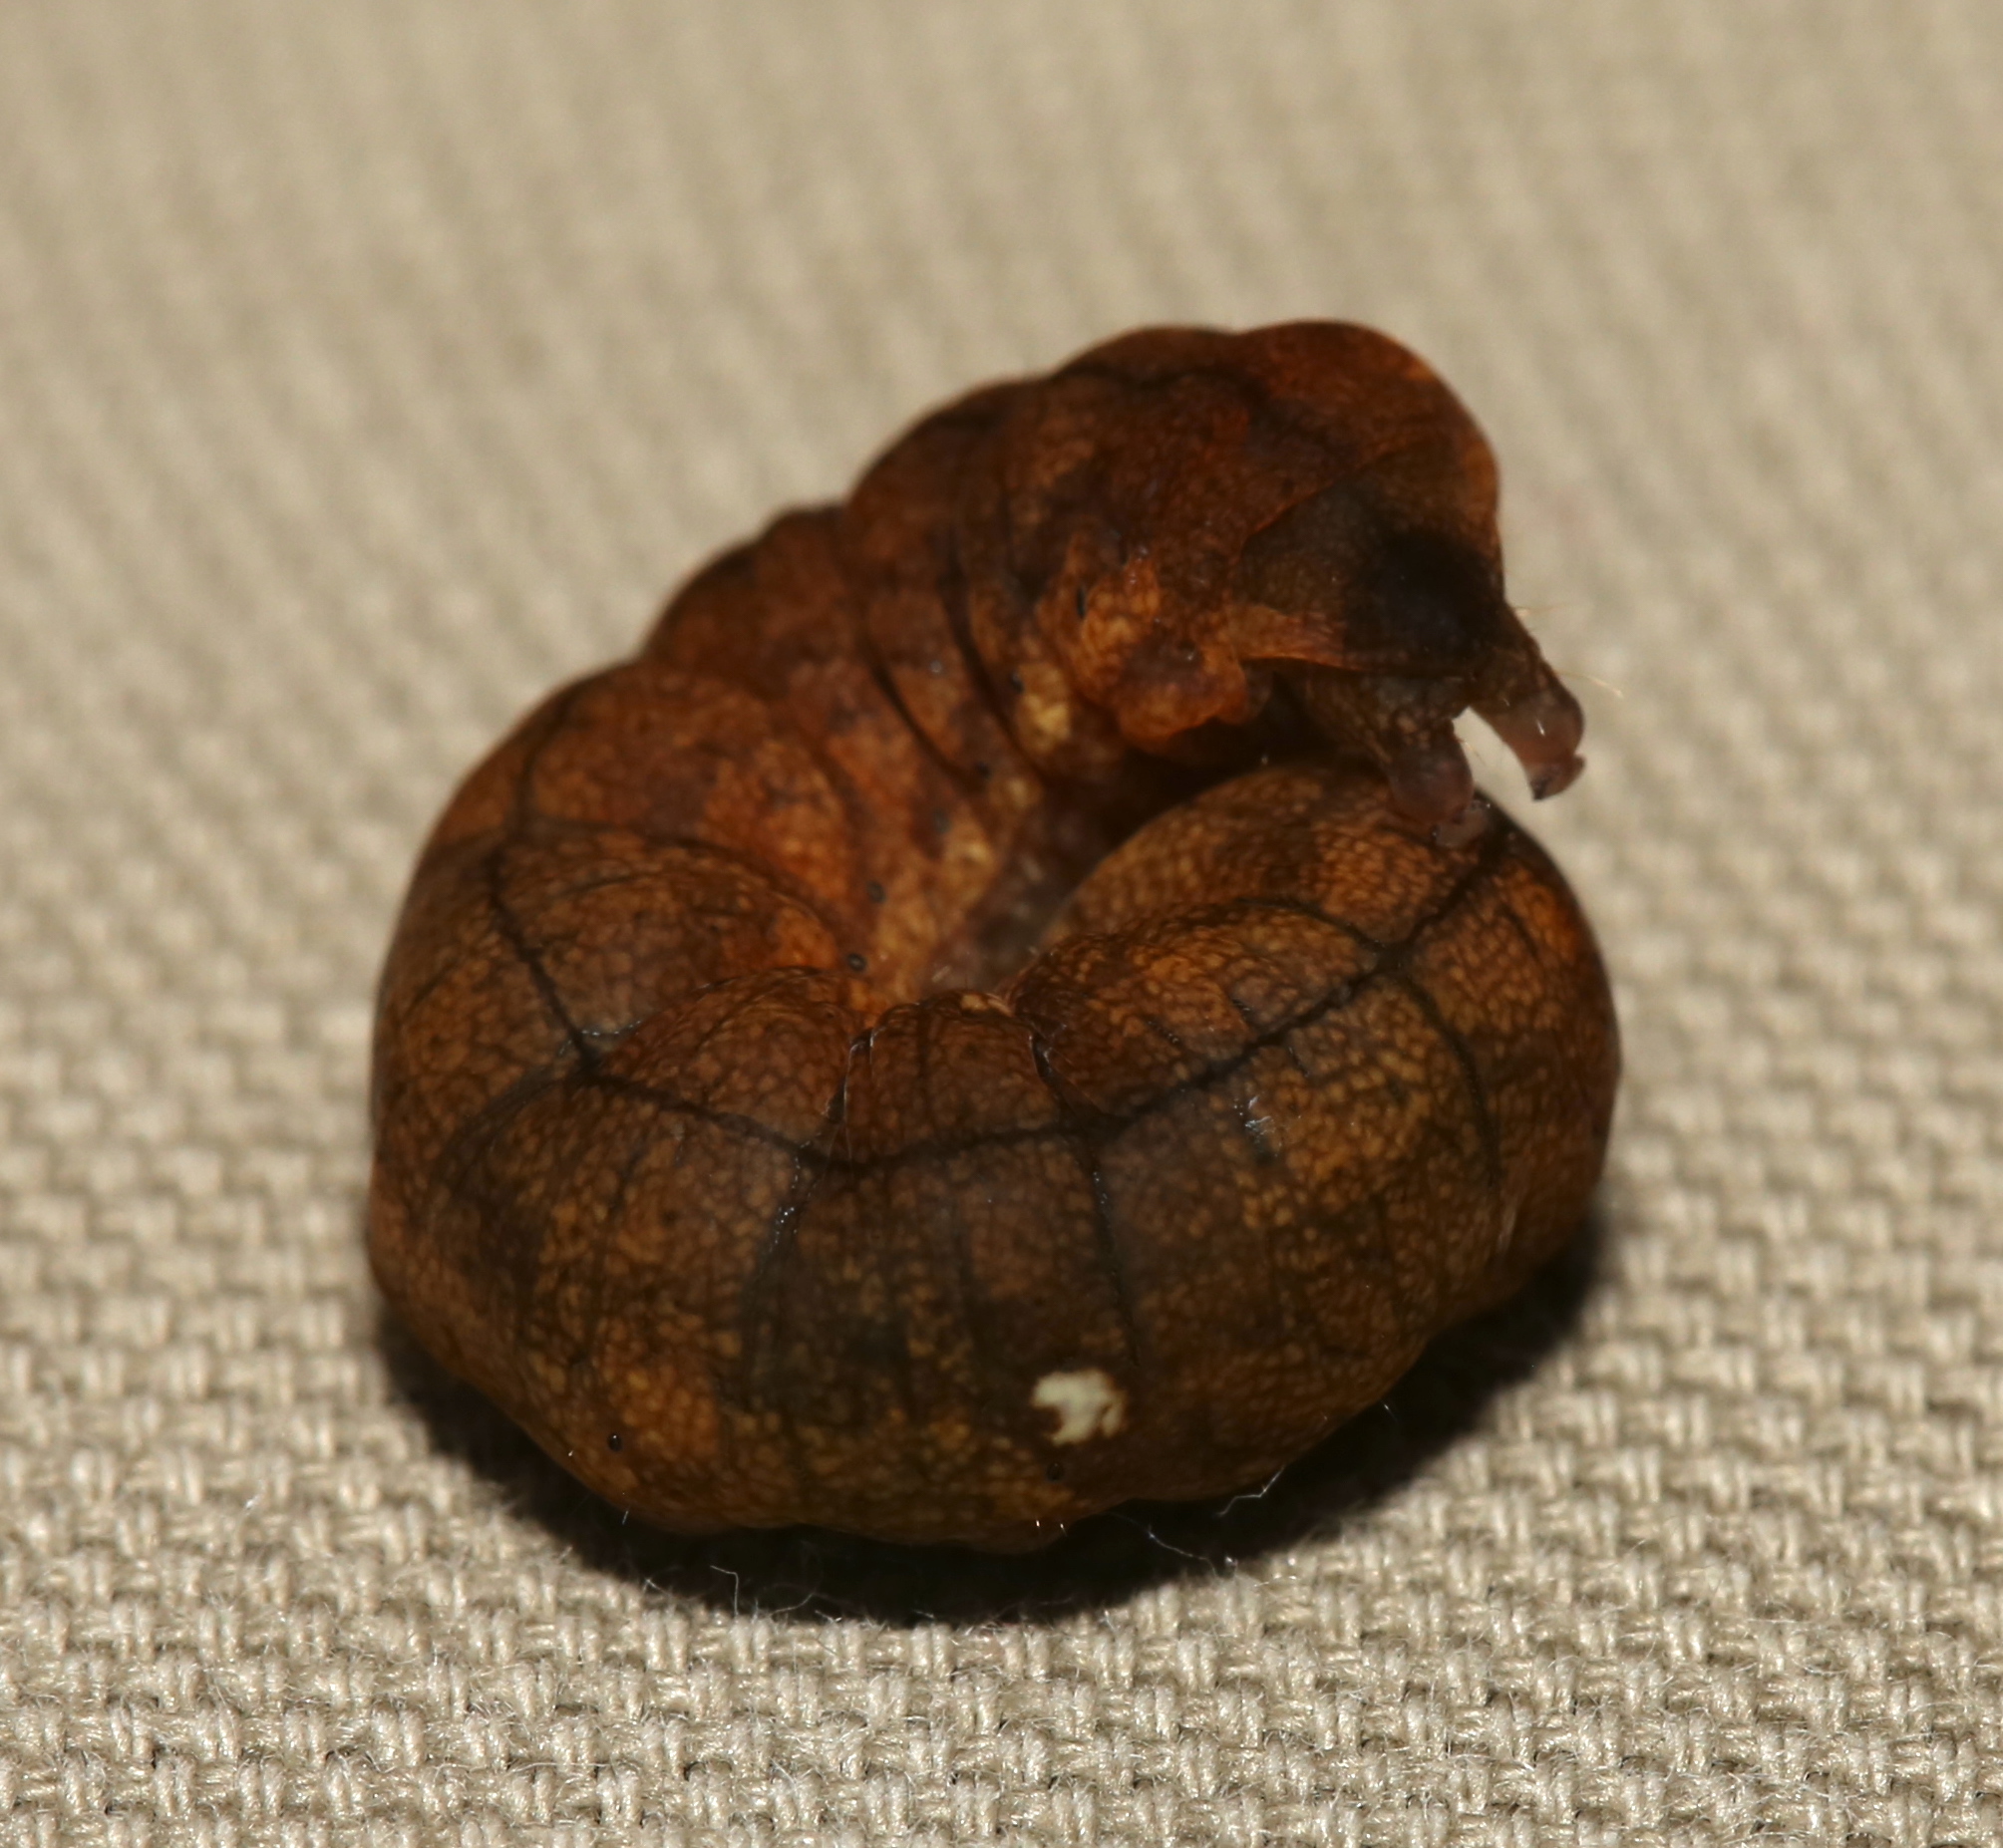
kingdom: Animalia
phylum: Arthropoda
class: Insecta
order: Lepidoptera
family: Drepanidae
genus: Pseudothyatira
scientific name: Pseudothyatira cymatophoroides
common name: Tufted thyatirid moth
